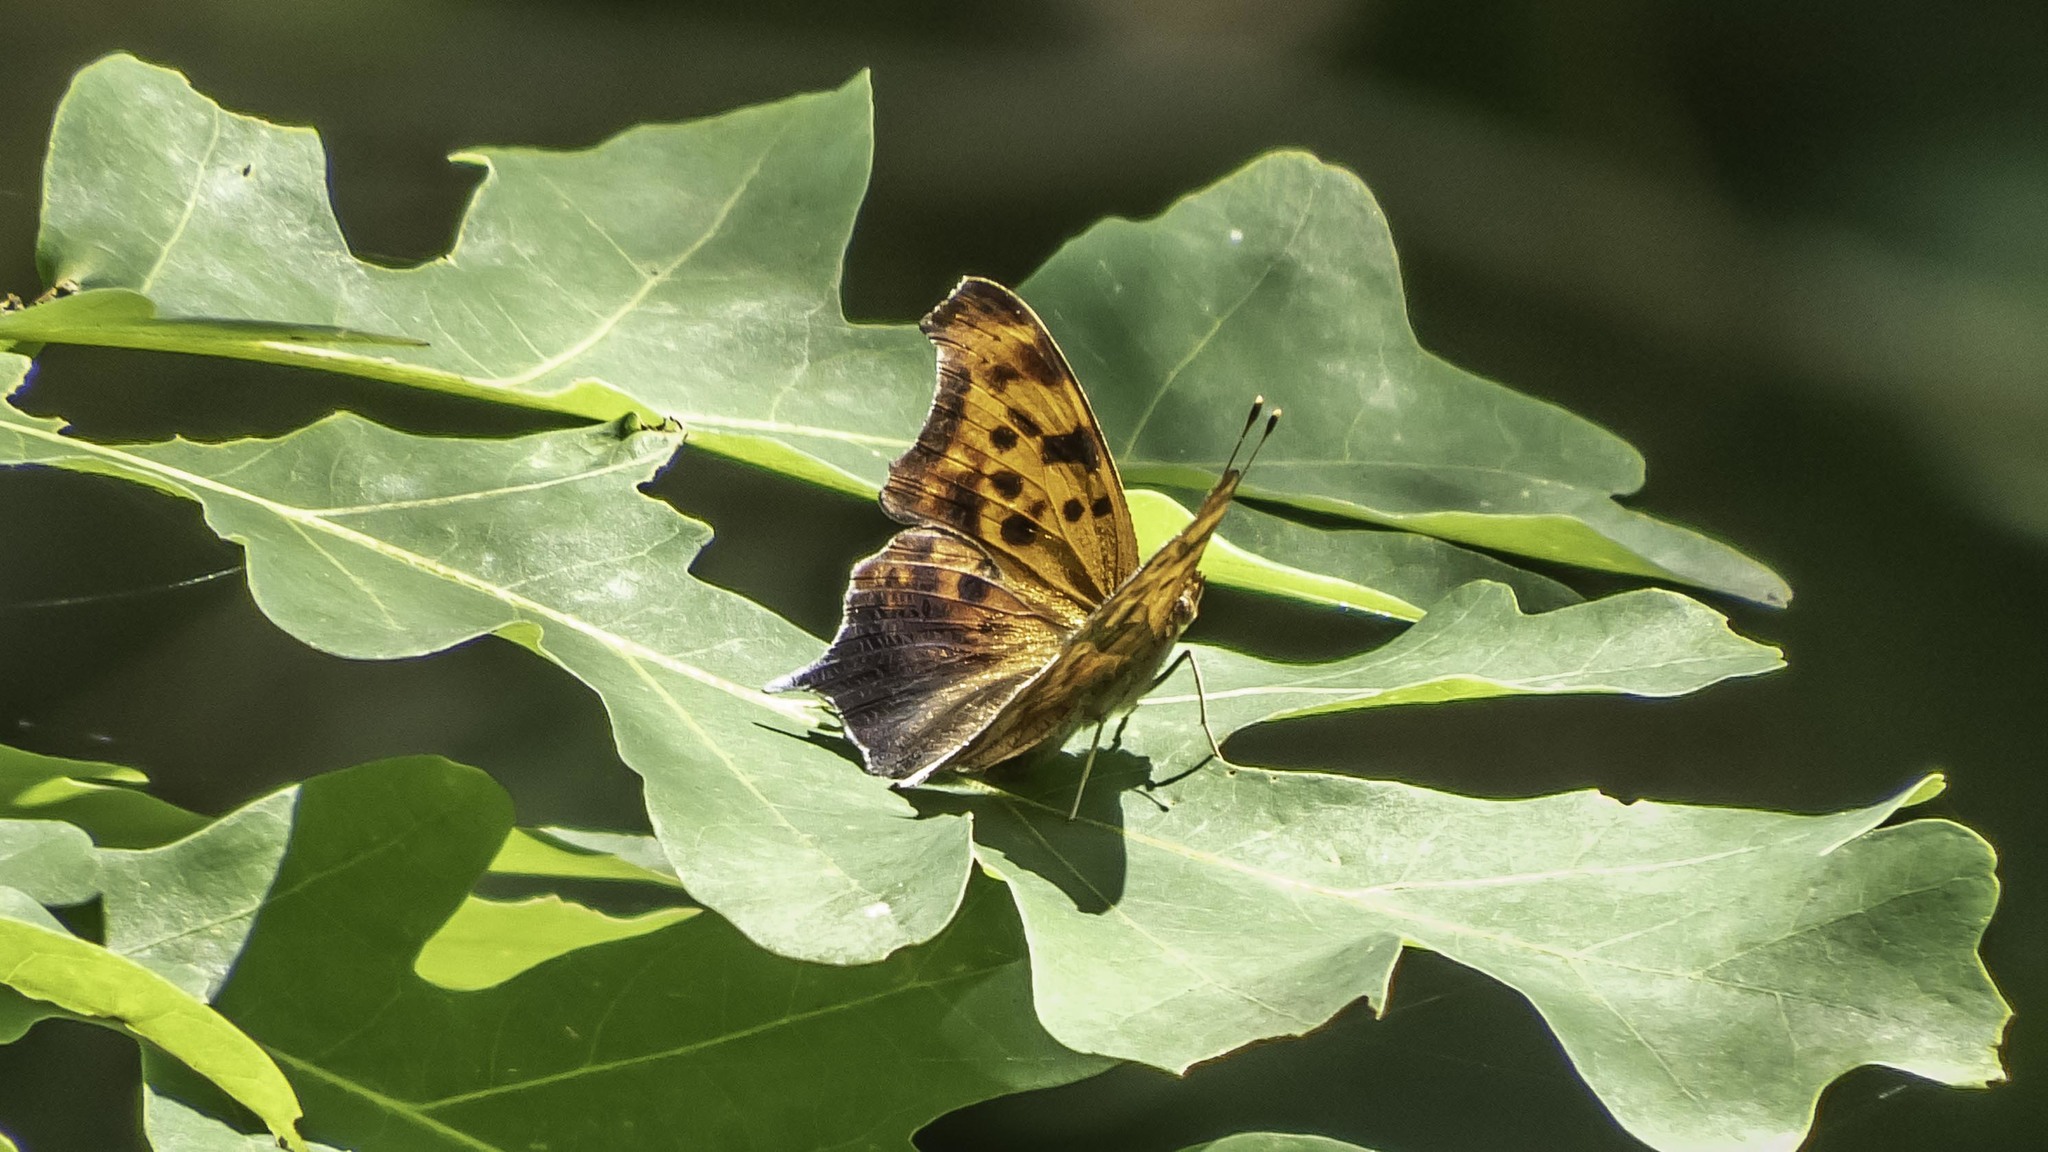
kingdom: Animalia
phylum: Arthropoda
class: Insecta
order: Lepidoptera
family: Nymphalidae
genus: Polygonia
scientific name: Polygonia interrogationis
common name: Question mark
